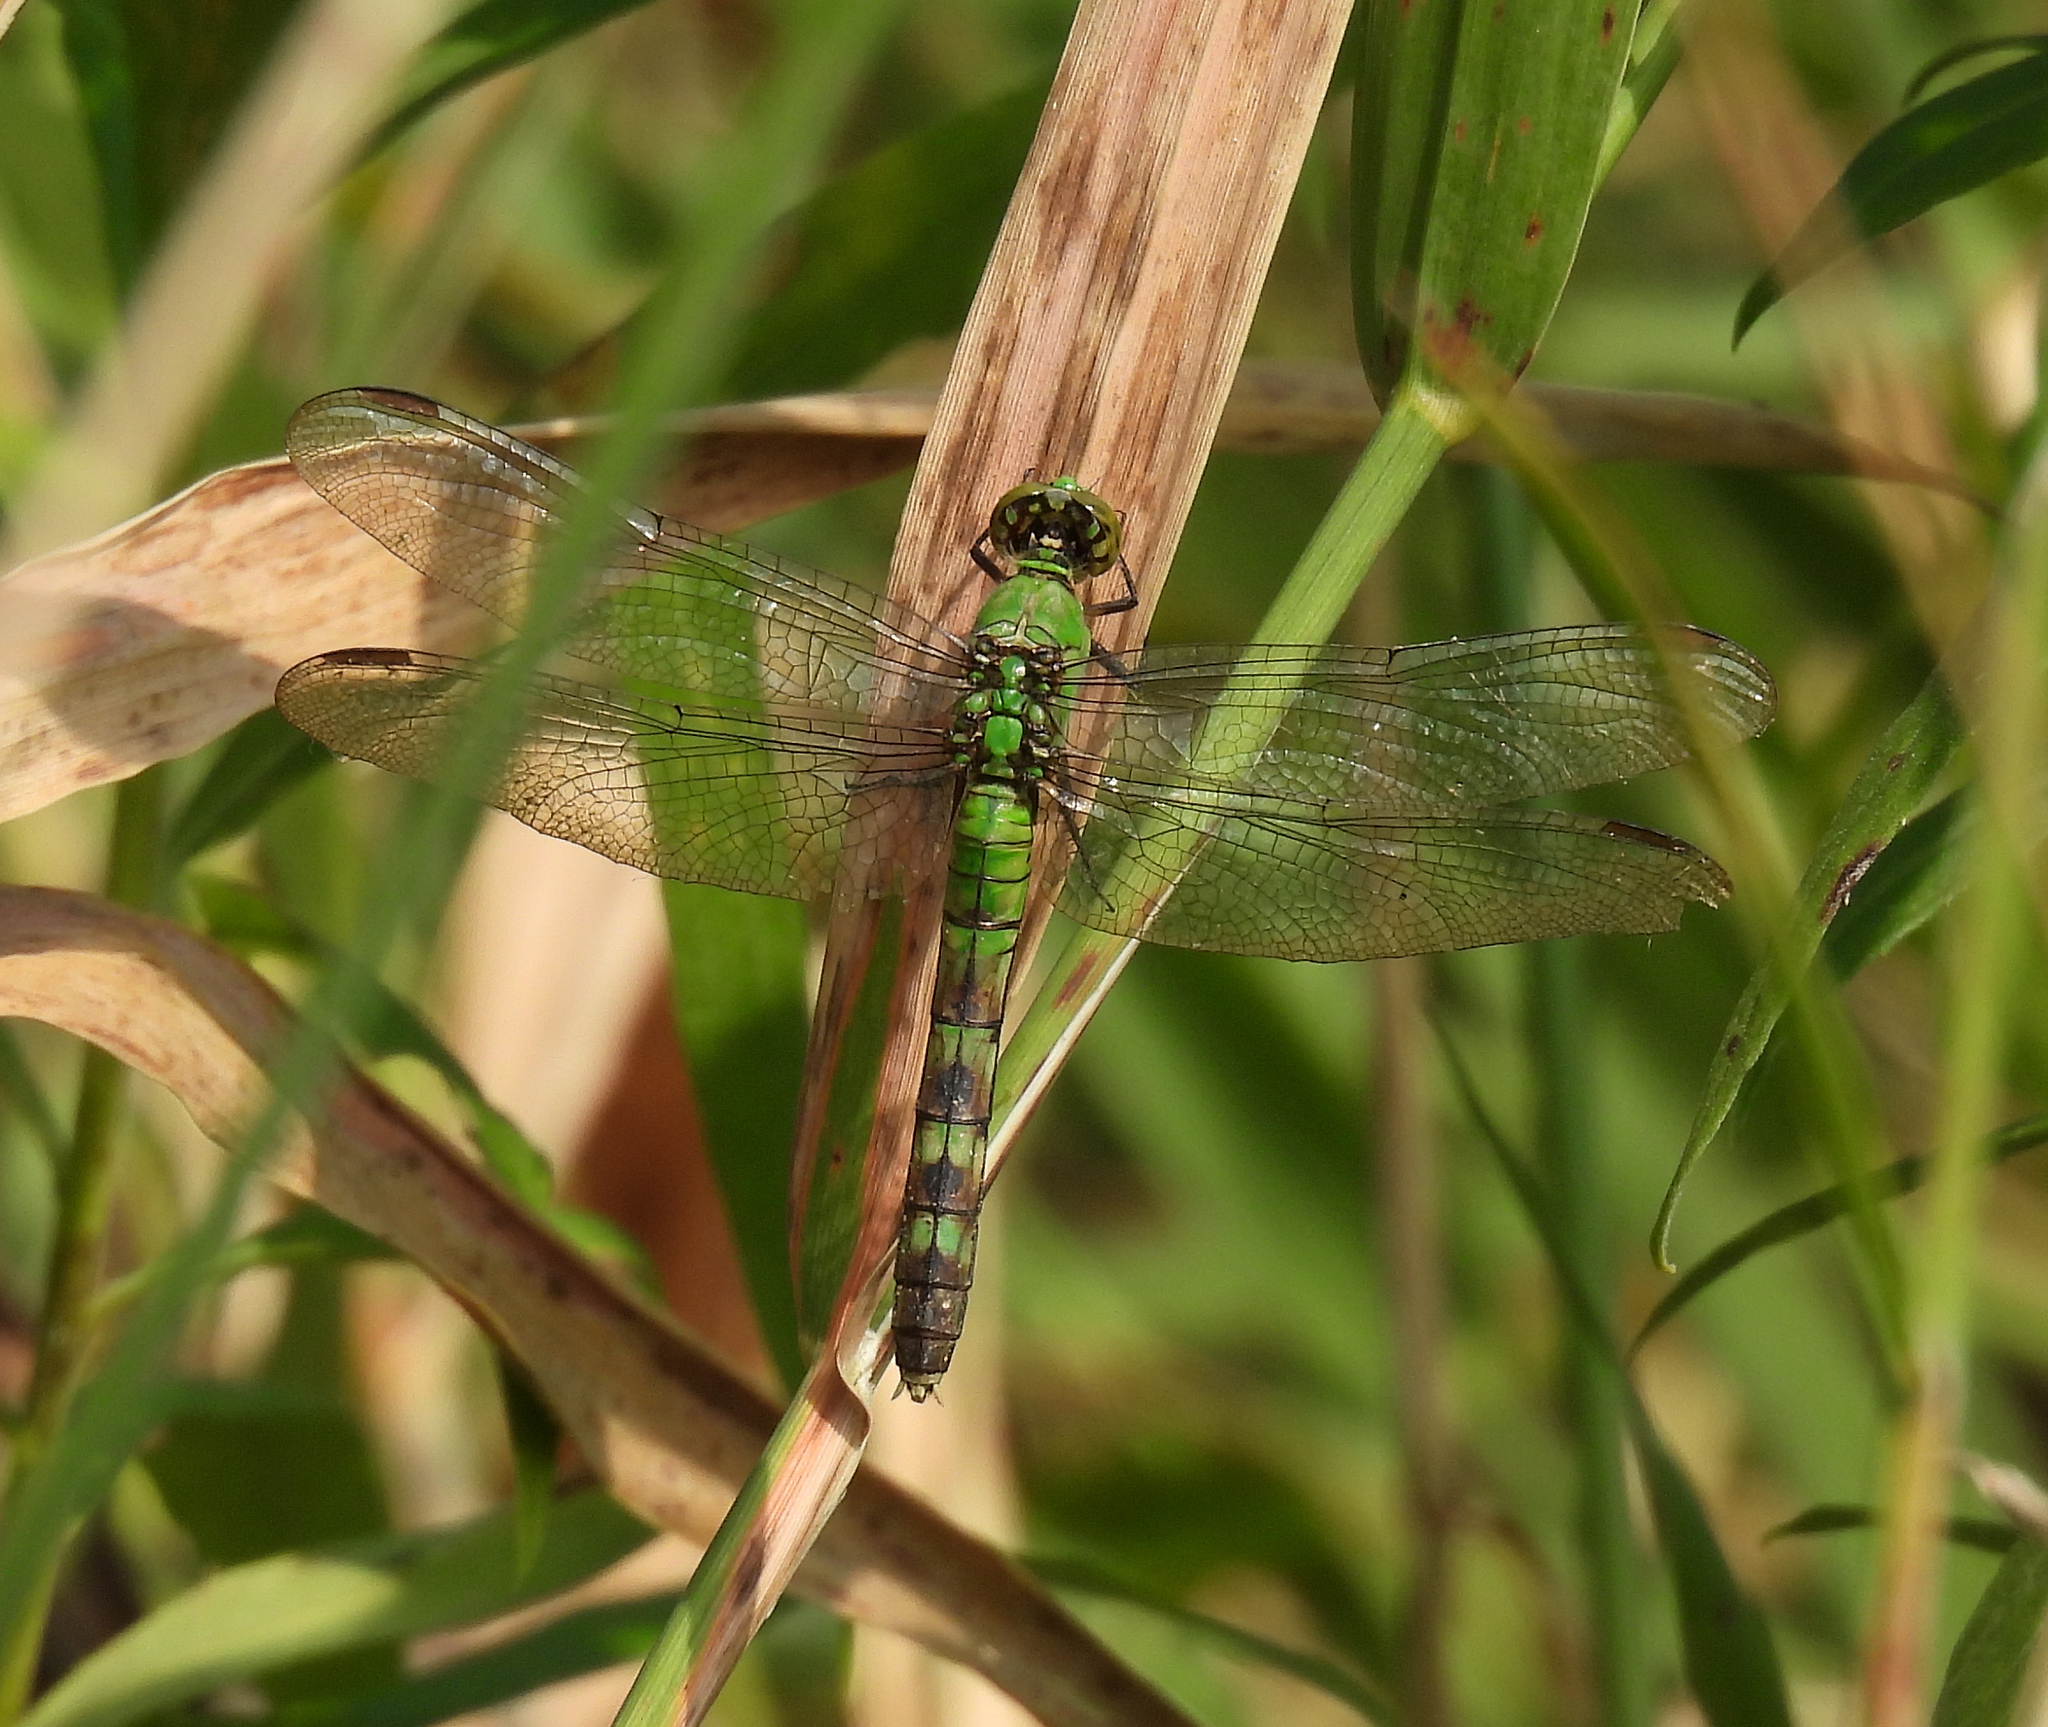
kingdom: Animalia
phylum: Arthropoda
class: Insecta
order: Odonata
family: Libellulidae
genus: Erythemis
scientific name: Erythemis simplicicollis
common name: Eastern pondhawk
